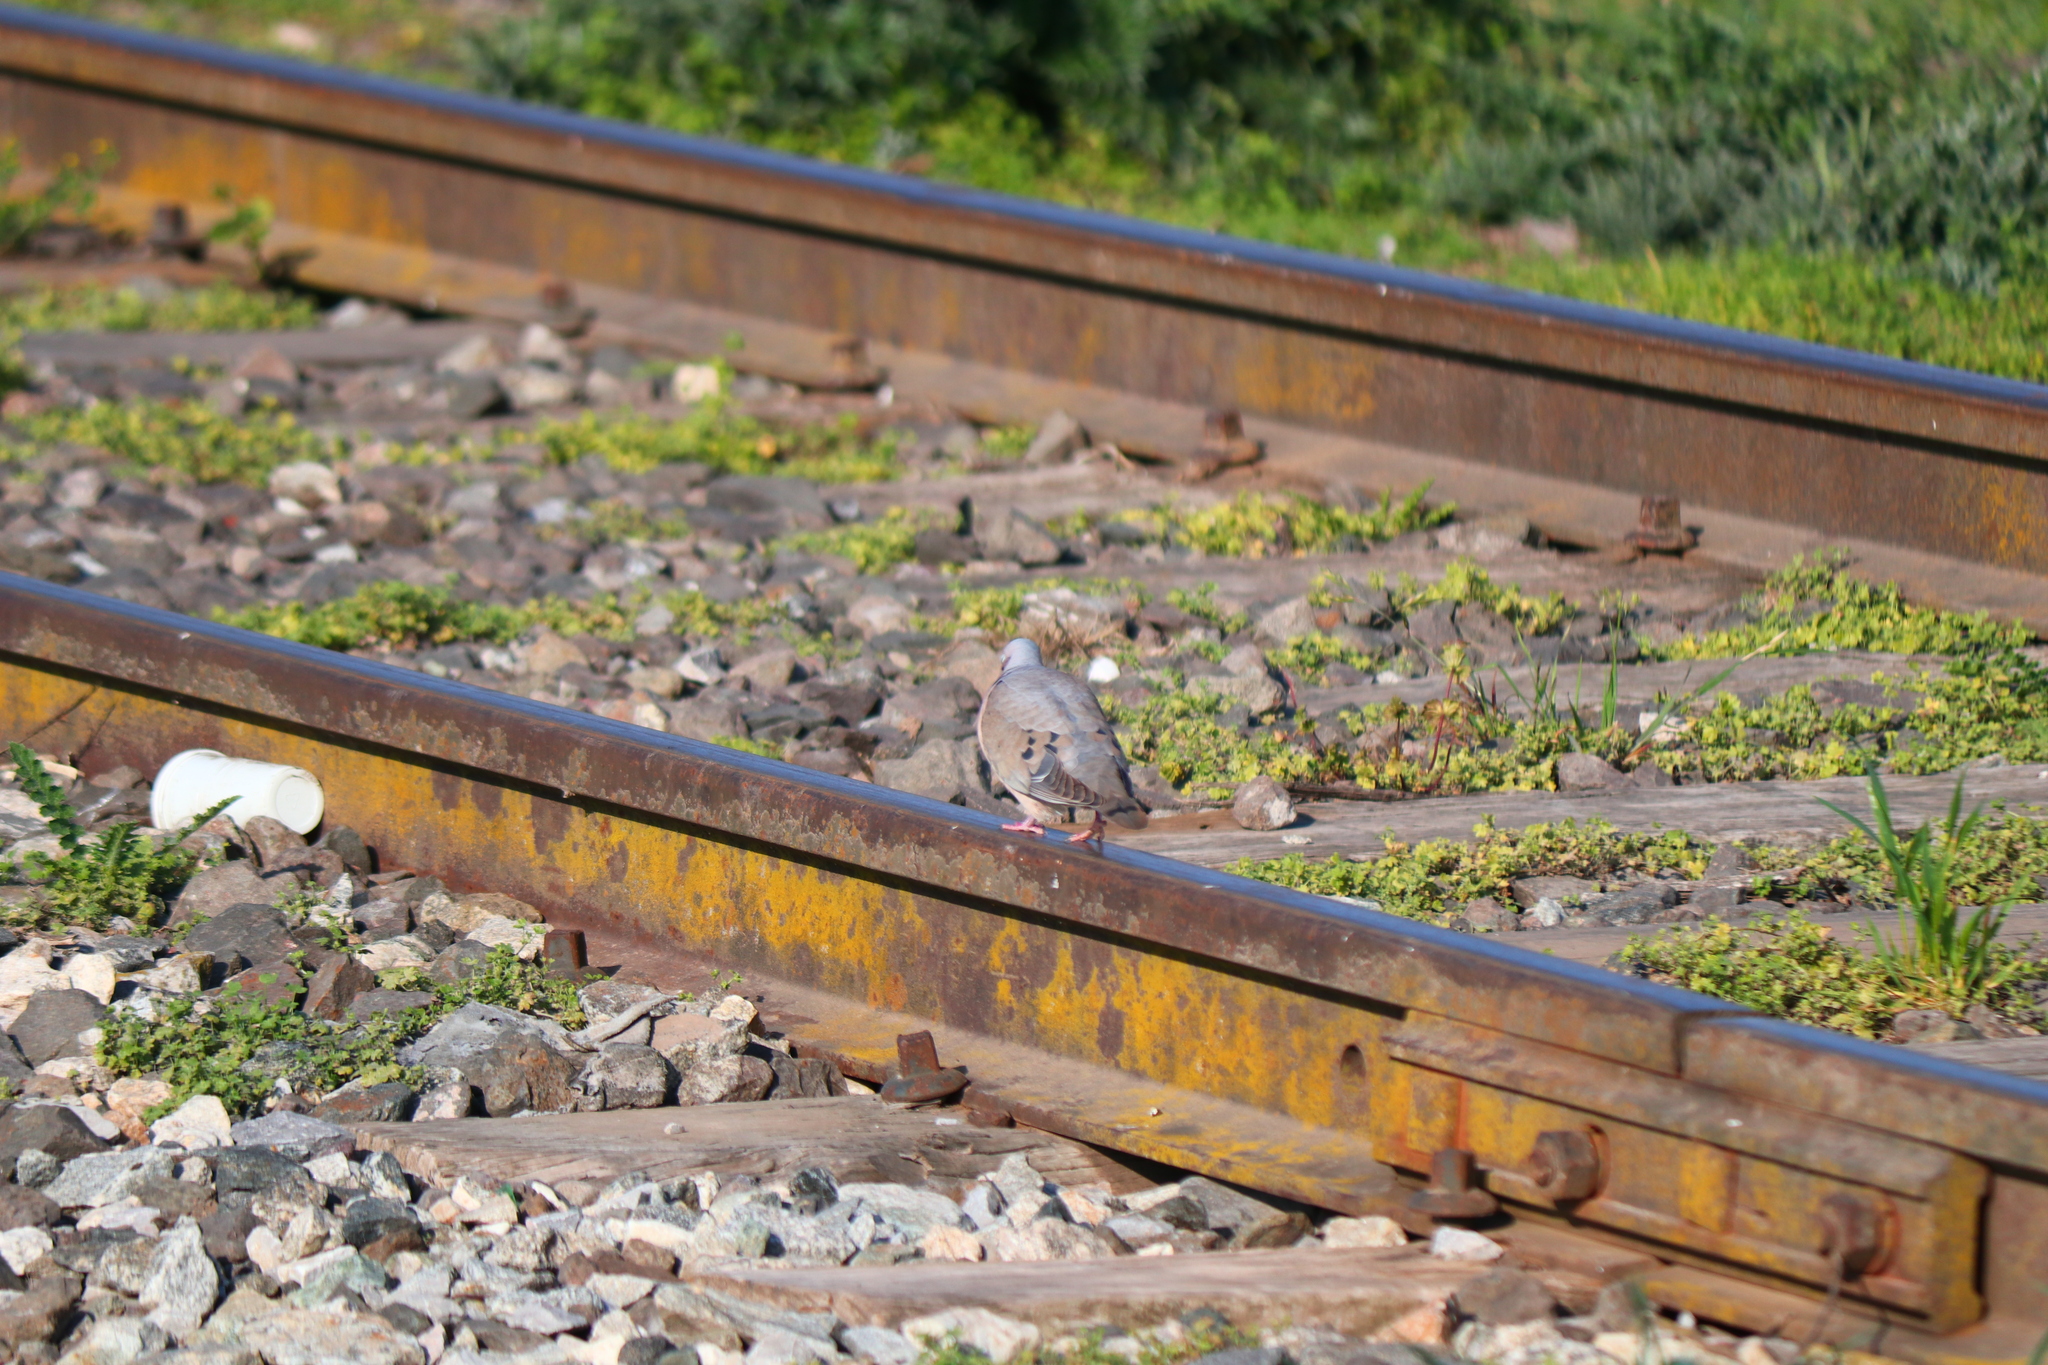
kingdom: Animalia
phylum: Chordata
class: Aves
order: Columbiformes
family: Columbidae
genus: Zenaida
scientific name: Zenaida auriculata
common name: Eared dove
